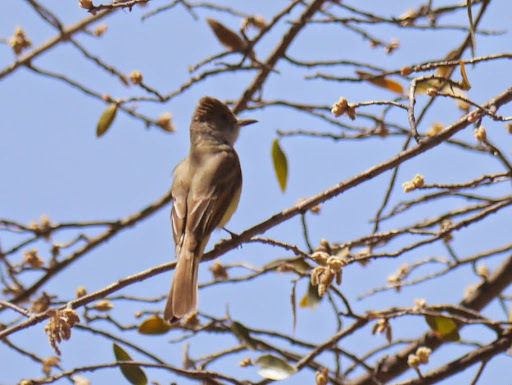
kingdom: Animalia
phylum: Chordata
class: Aves
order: Passeriformes
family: Tyrannidae
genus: Myiarchus
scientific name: Myiarchus tuberculifer
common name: Dusky-capped flycatcher
